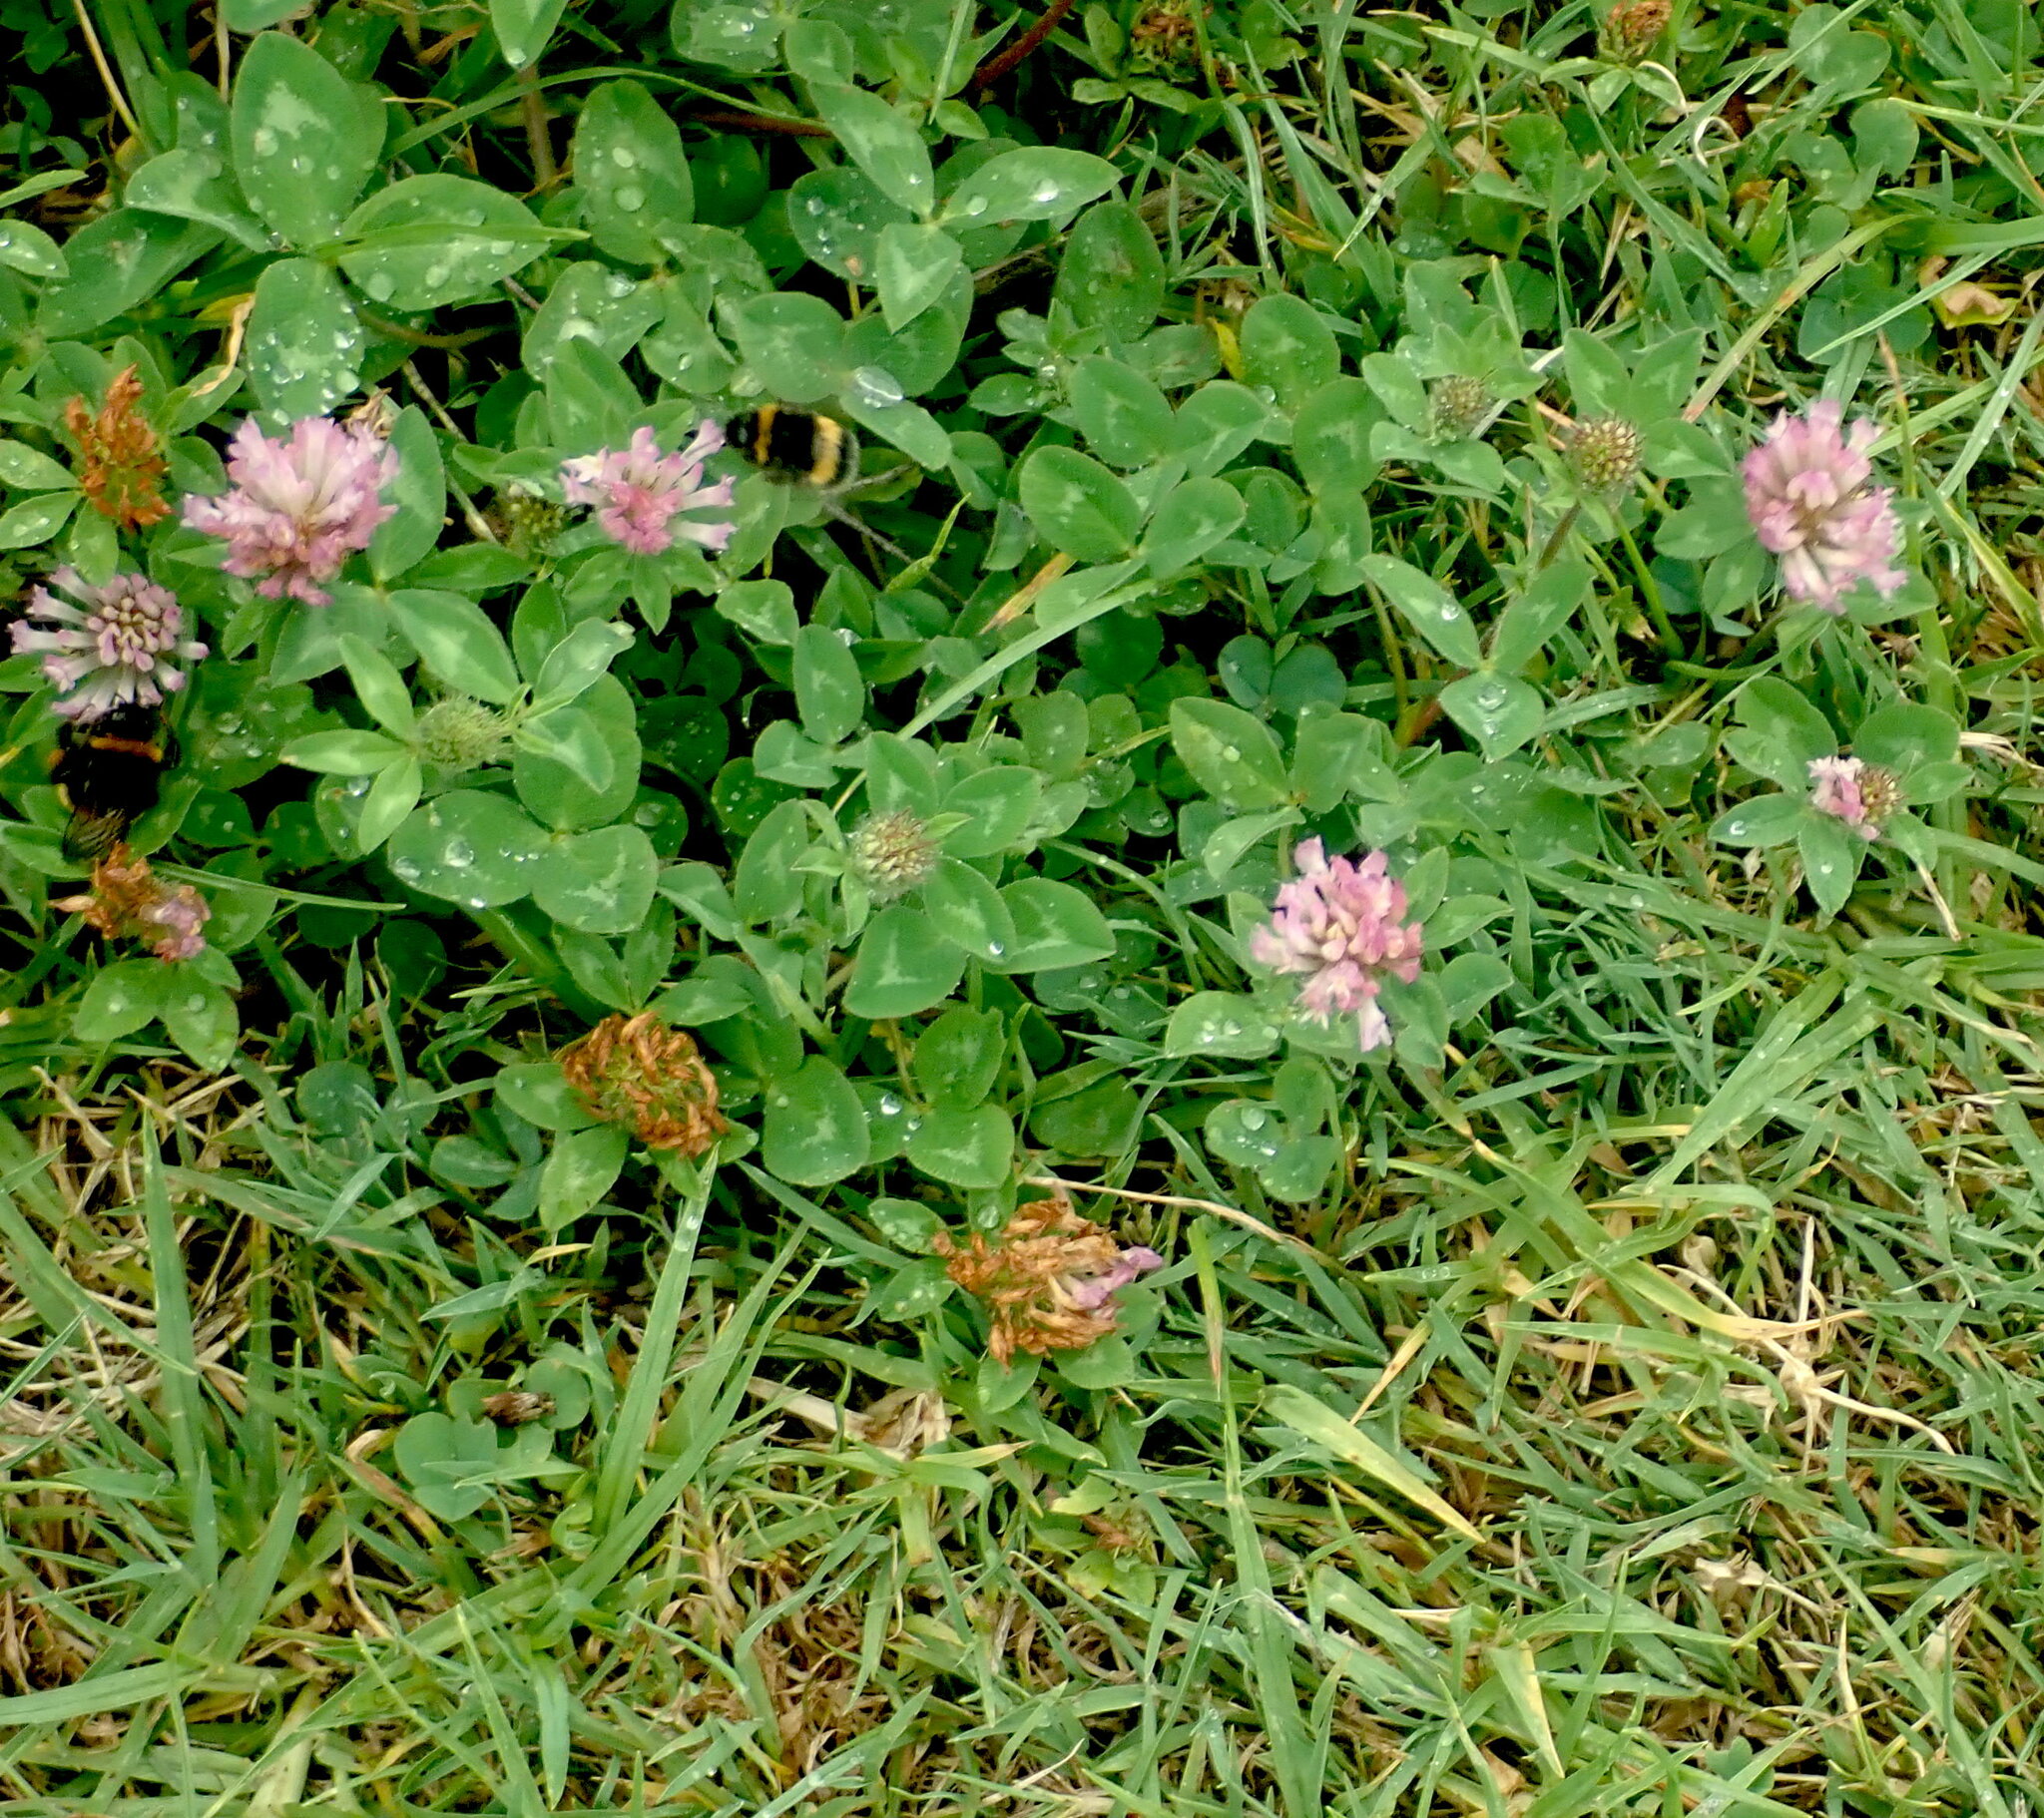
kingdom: Animalia
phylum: Arthropoda
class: Insecta
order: Hymenoptera
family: Apidae
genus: Bombus
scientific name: Bombus terrestris
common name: Buff-tailed bumblebee
